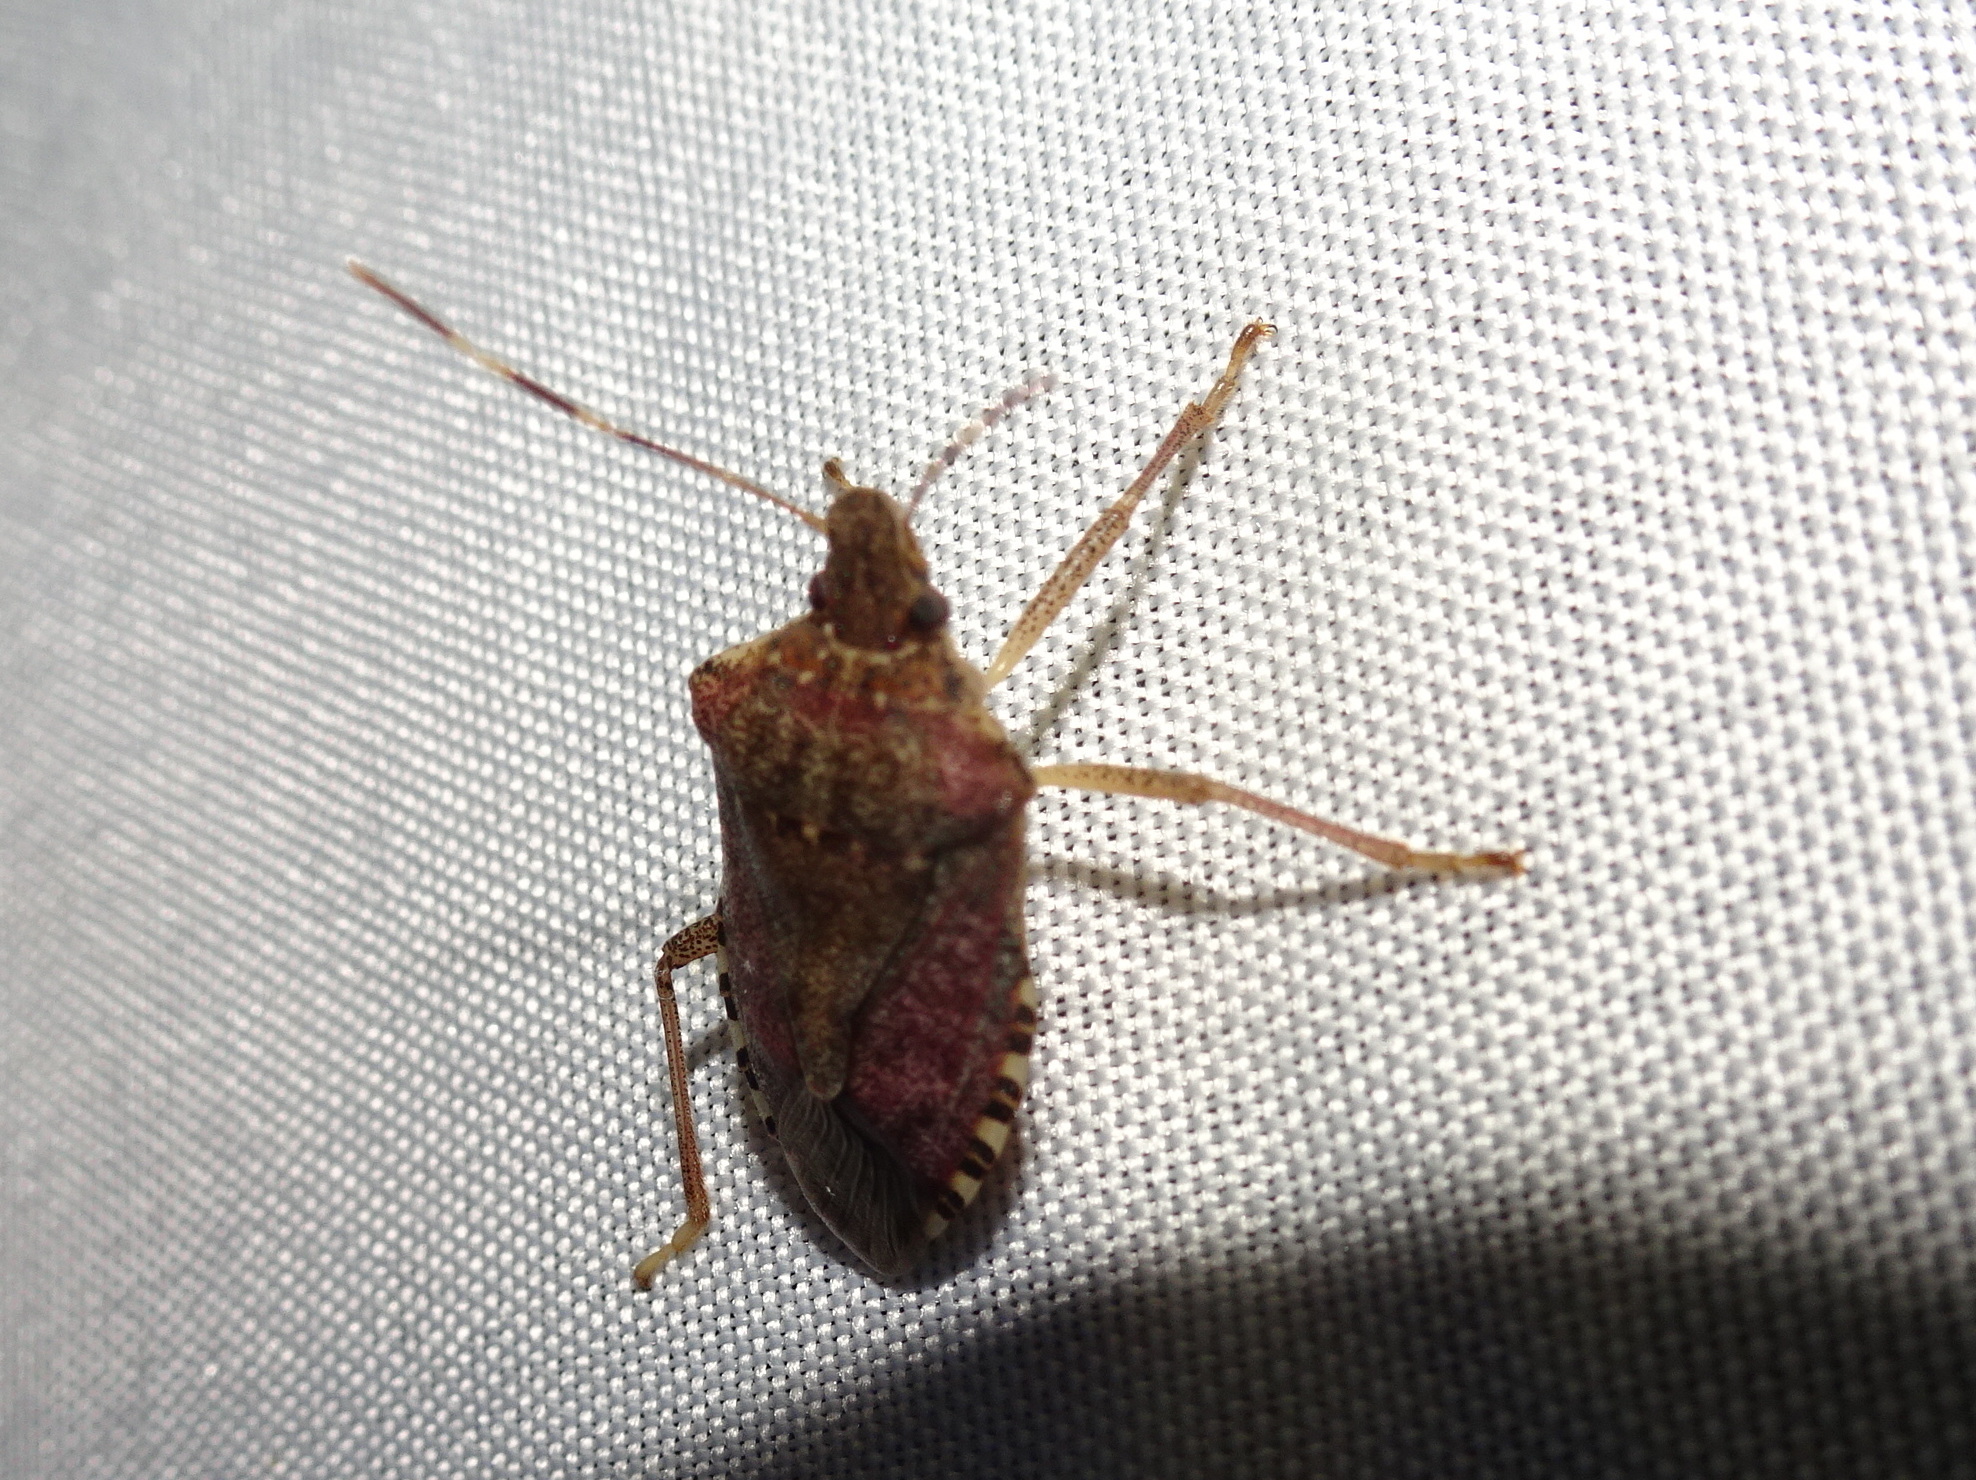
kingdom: Animalia
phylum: Arthropoda
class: Insecta
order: Hemiptera
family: Pentatomidae
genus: Halyomorpha
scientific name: Halyomorpha halys
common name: Brown marmorated stink bug
